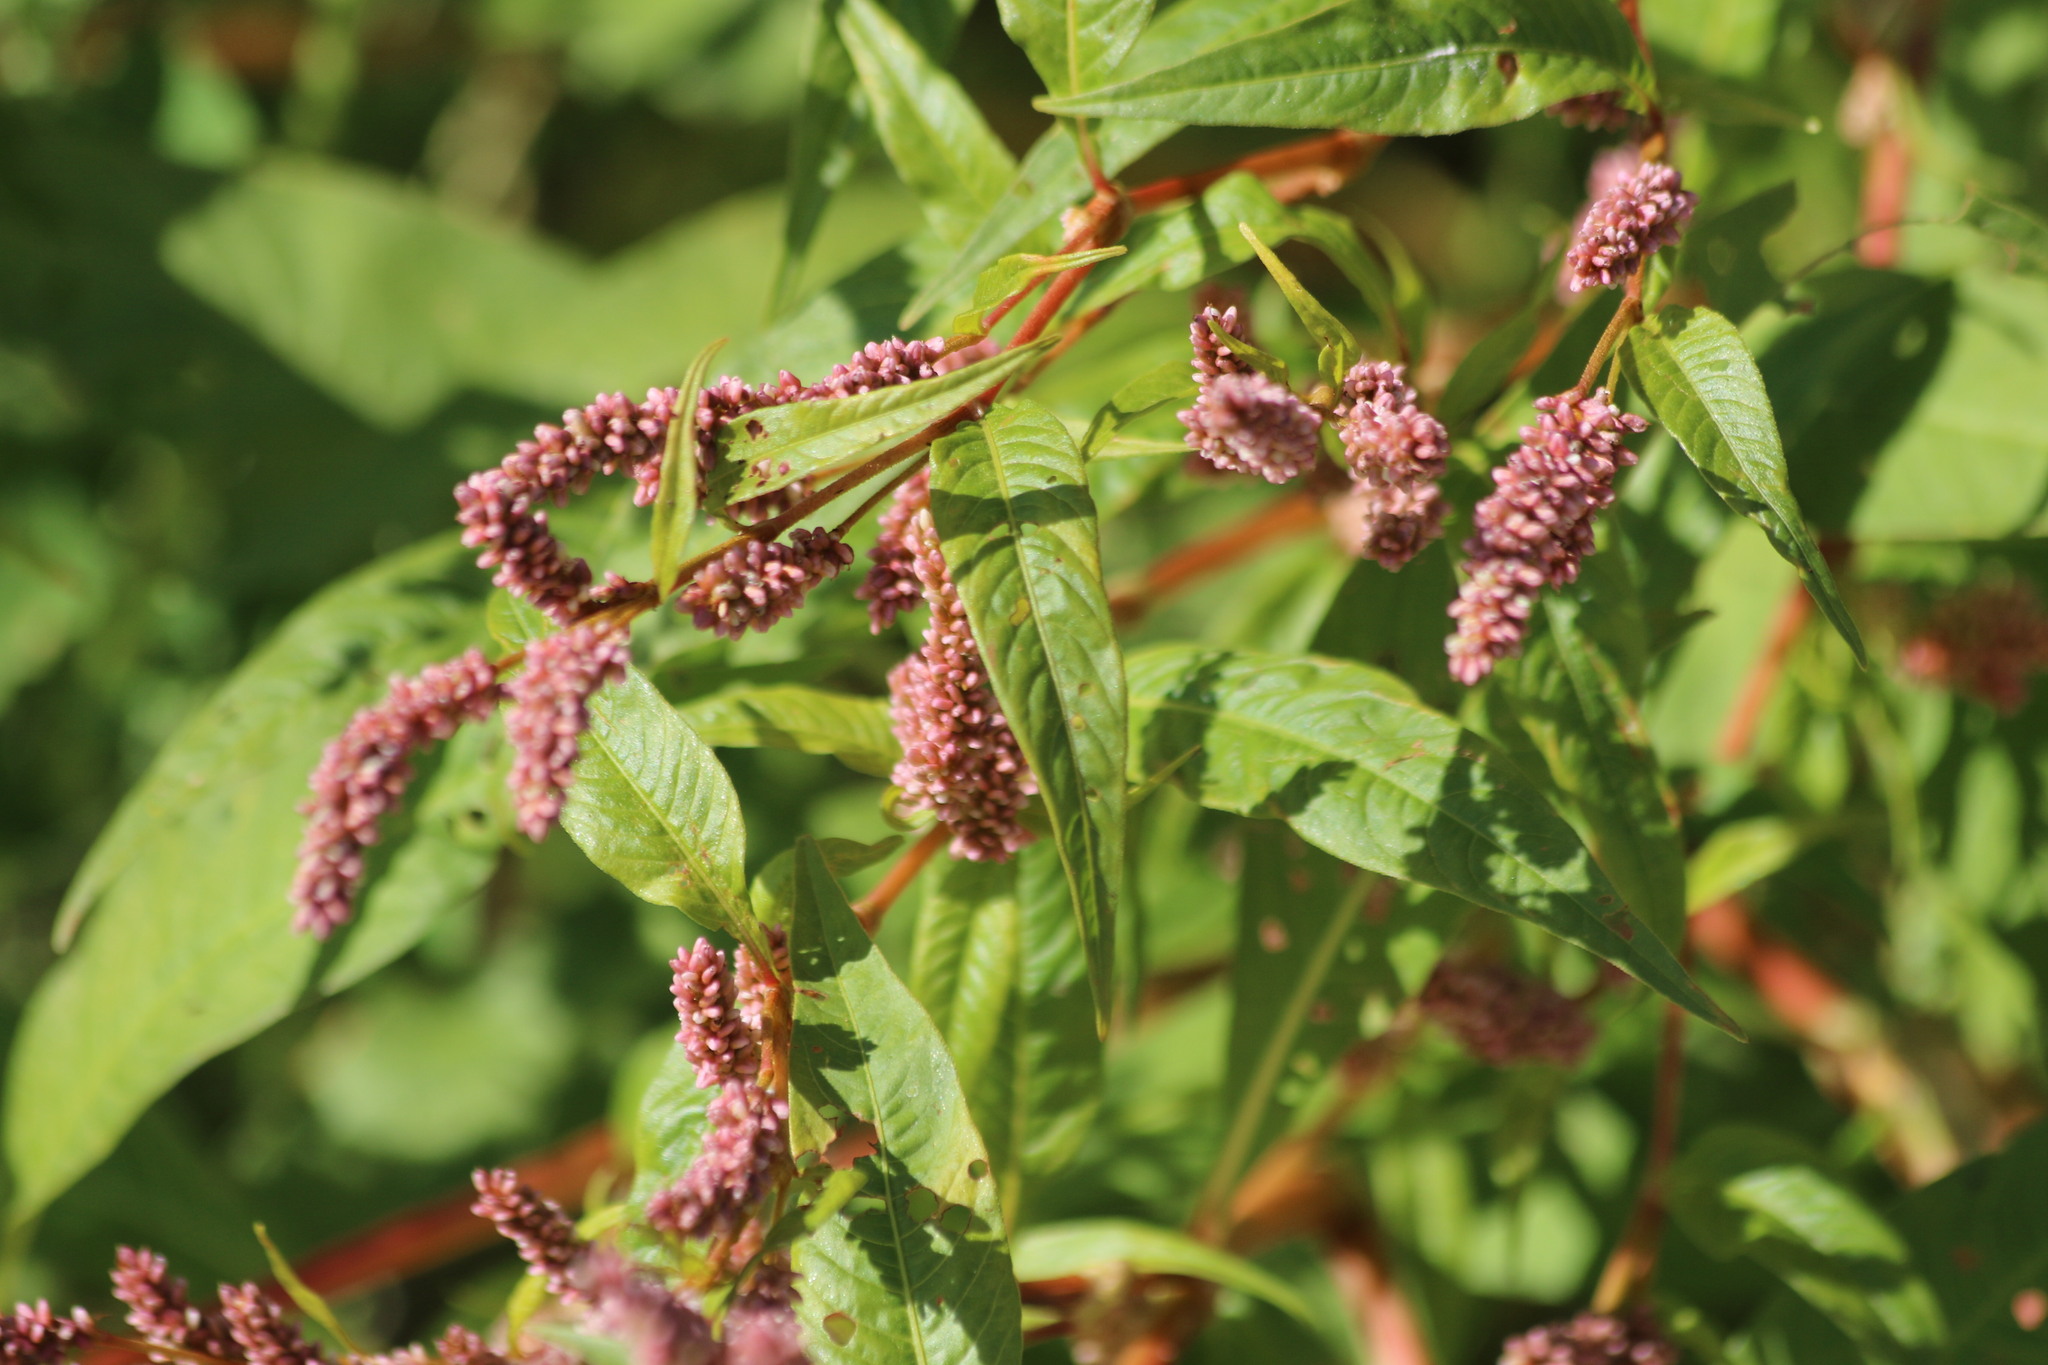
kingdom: Plantae
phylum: Tracheophyta
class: Magnoliopsida
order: Caryophyllales
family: Polygonaceae
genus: Persicaria
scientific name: Persicaria lapathifolia
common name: Curlytop knotweed
